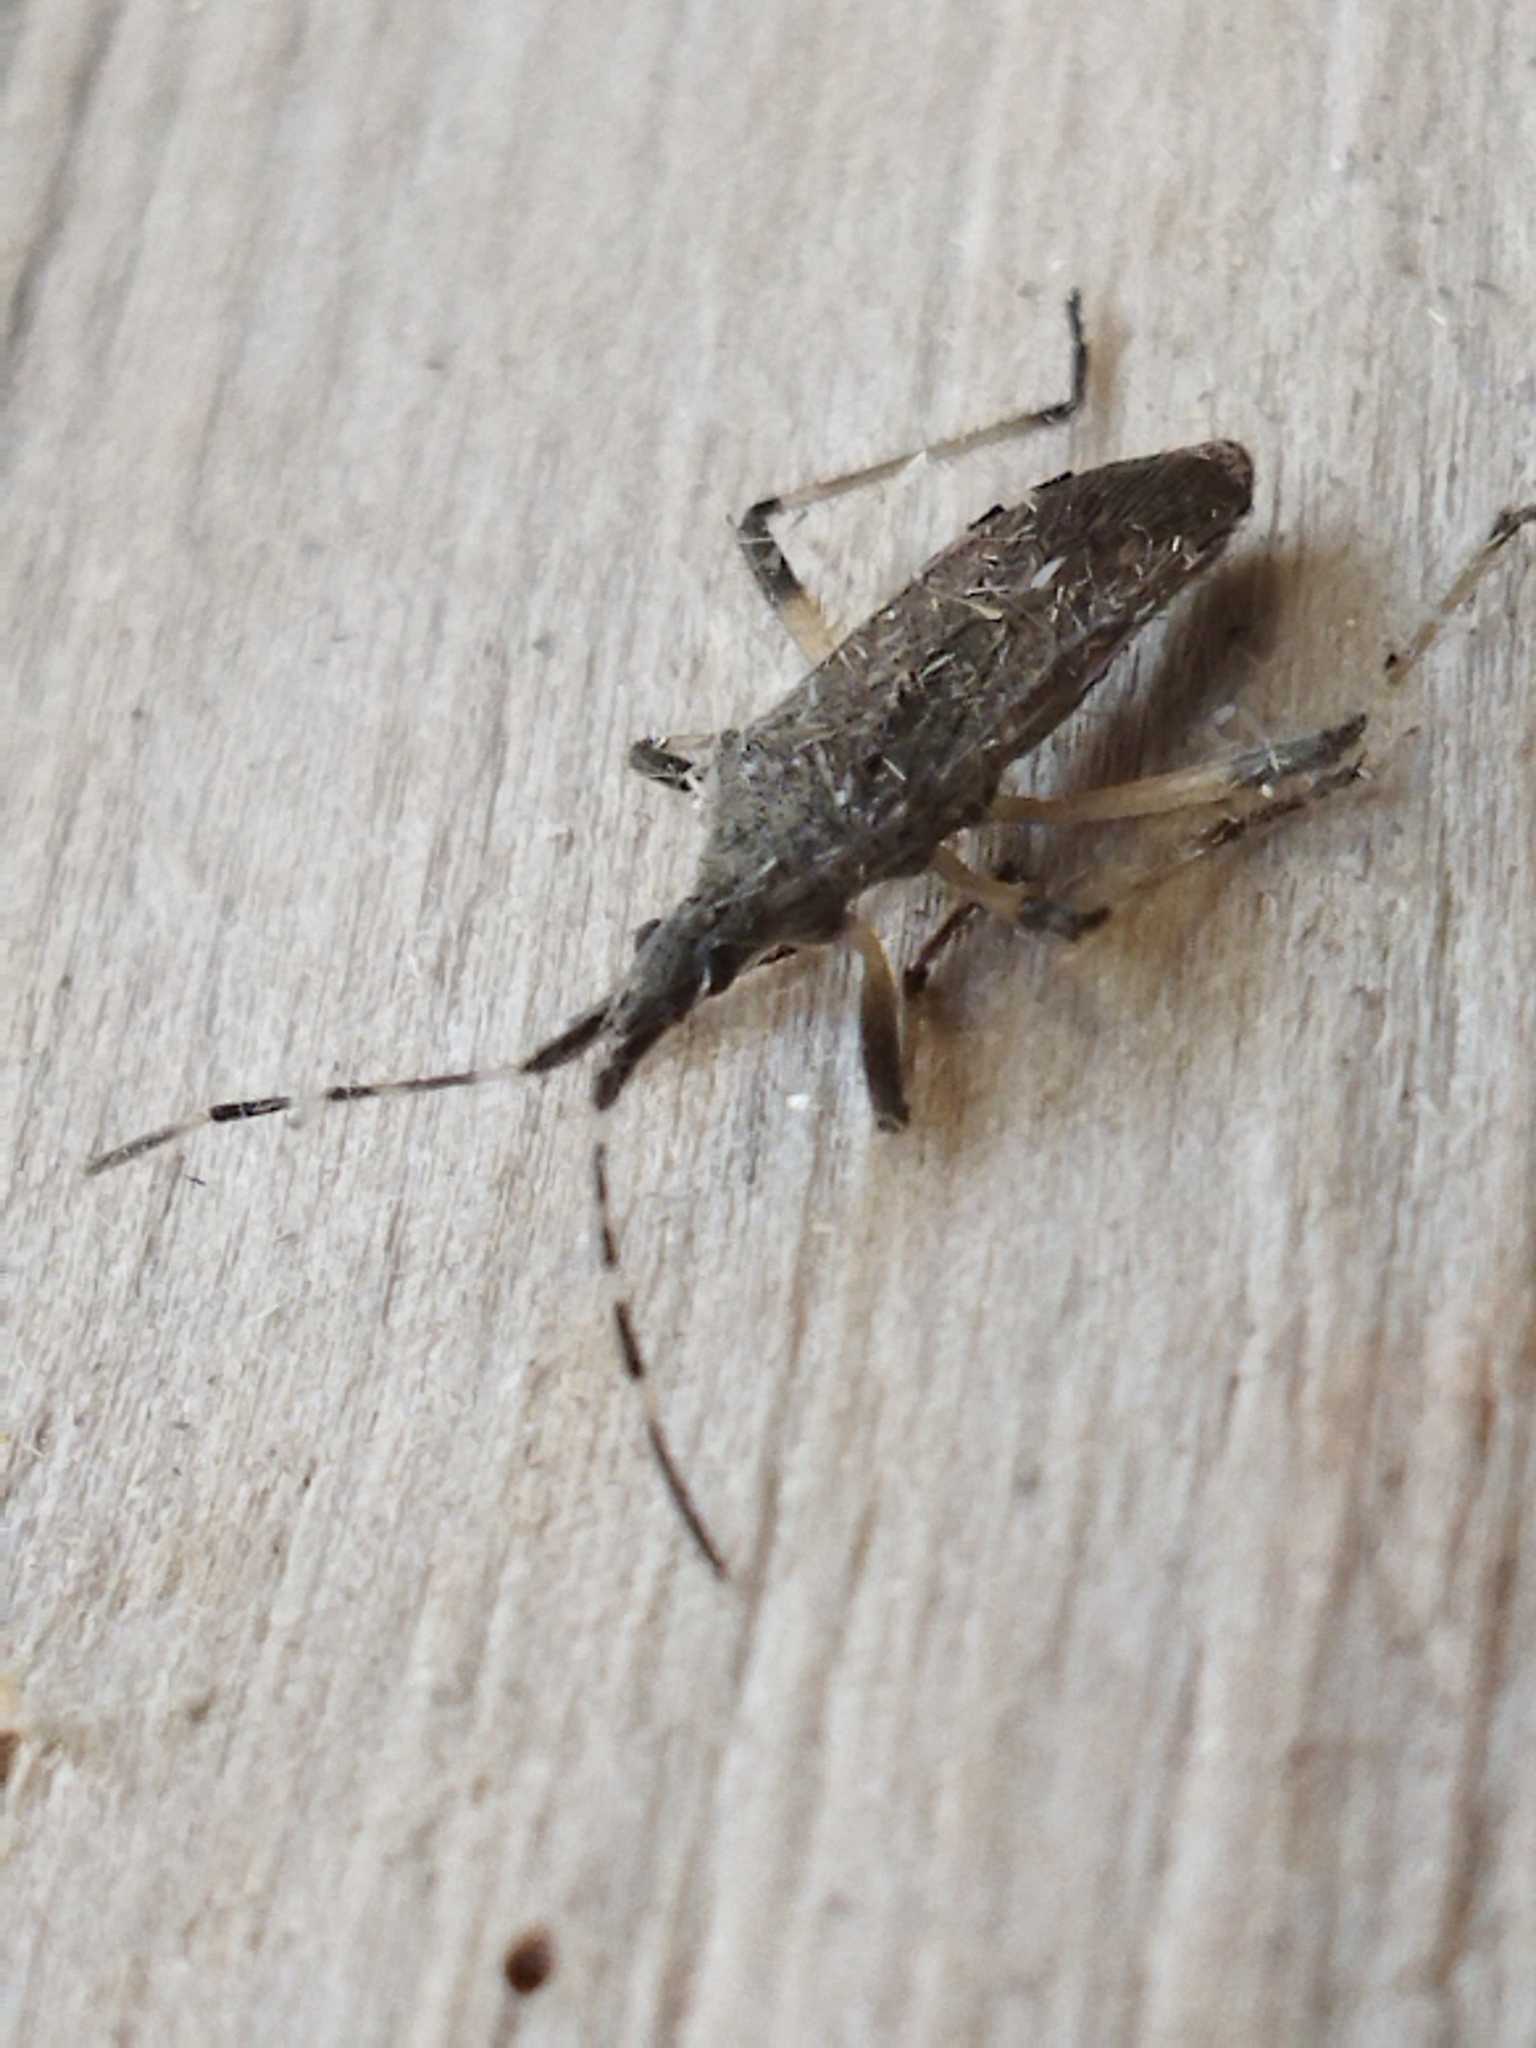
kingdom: Animalia
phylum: Arthropoda
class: Insecta
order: Hemiptera
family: Stenocephalidae
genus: Dicranocephalus
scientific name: Dicranocephalus setulosus
